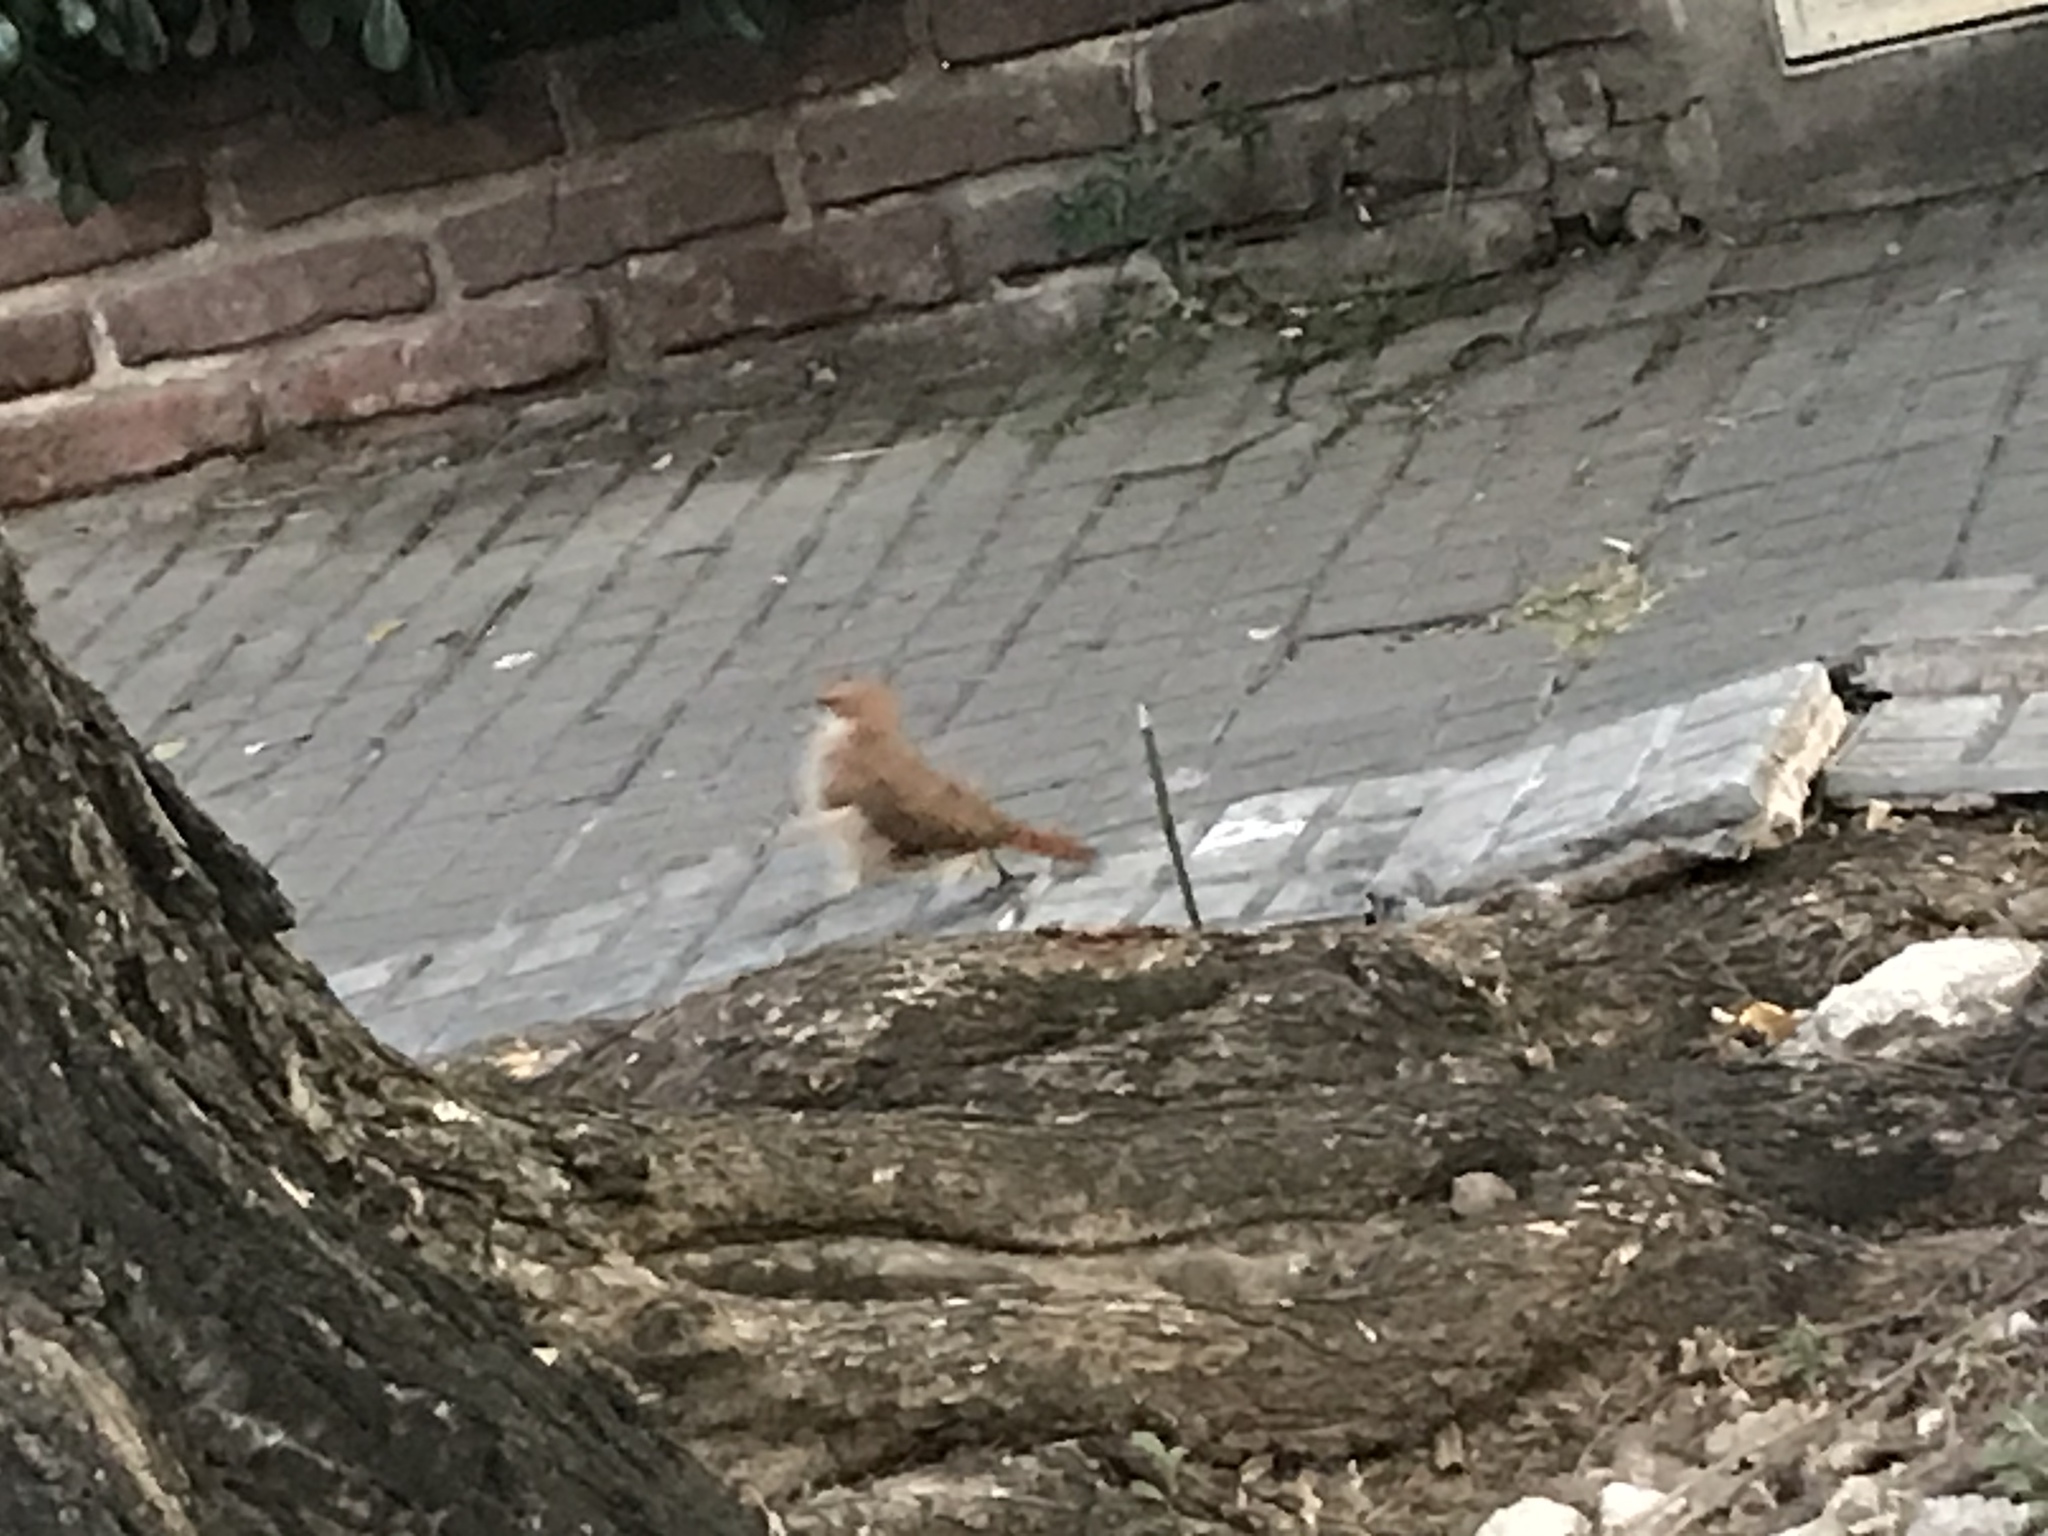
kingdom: Animalia
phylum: Chordata
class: Aves
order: Passeriformes
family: Furnariidae
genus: Furnarius
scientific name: Furnarius rufus
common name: Rufous hornero
